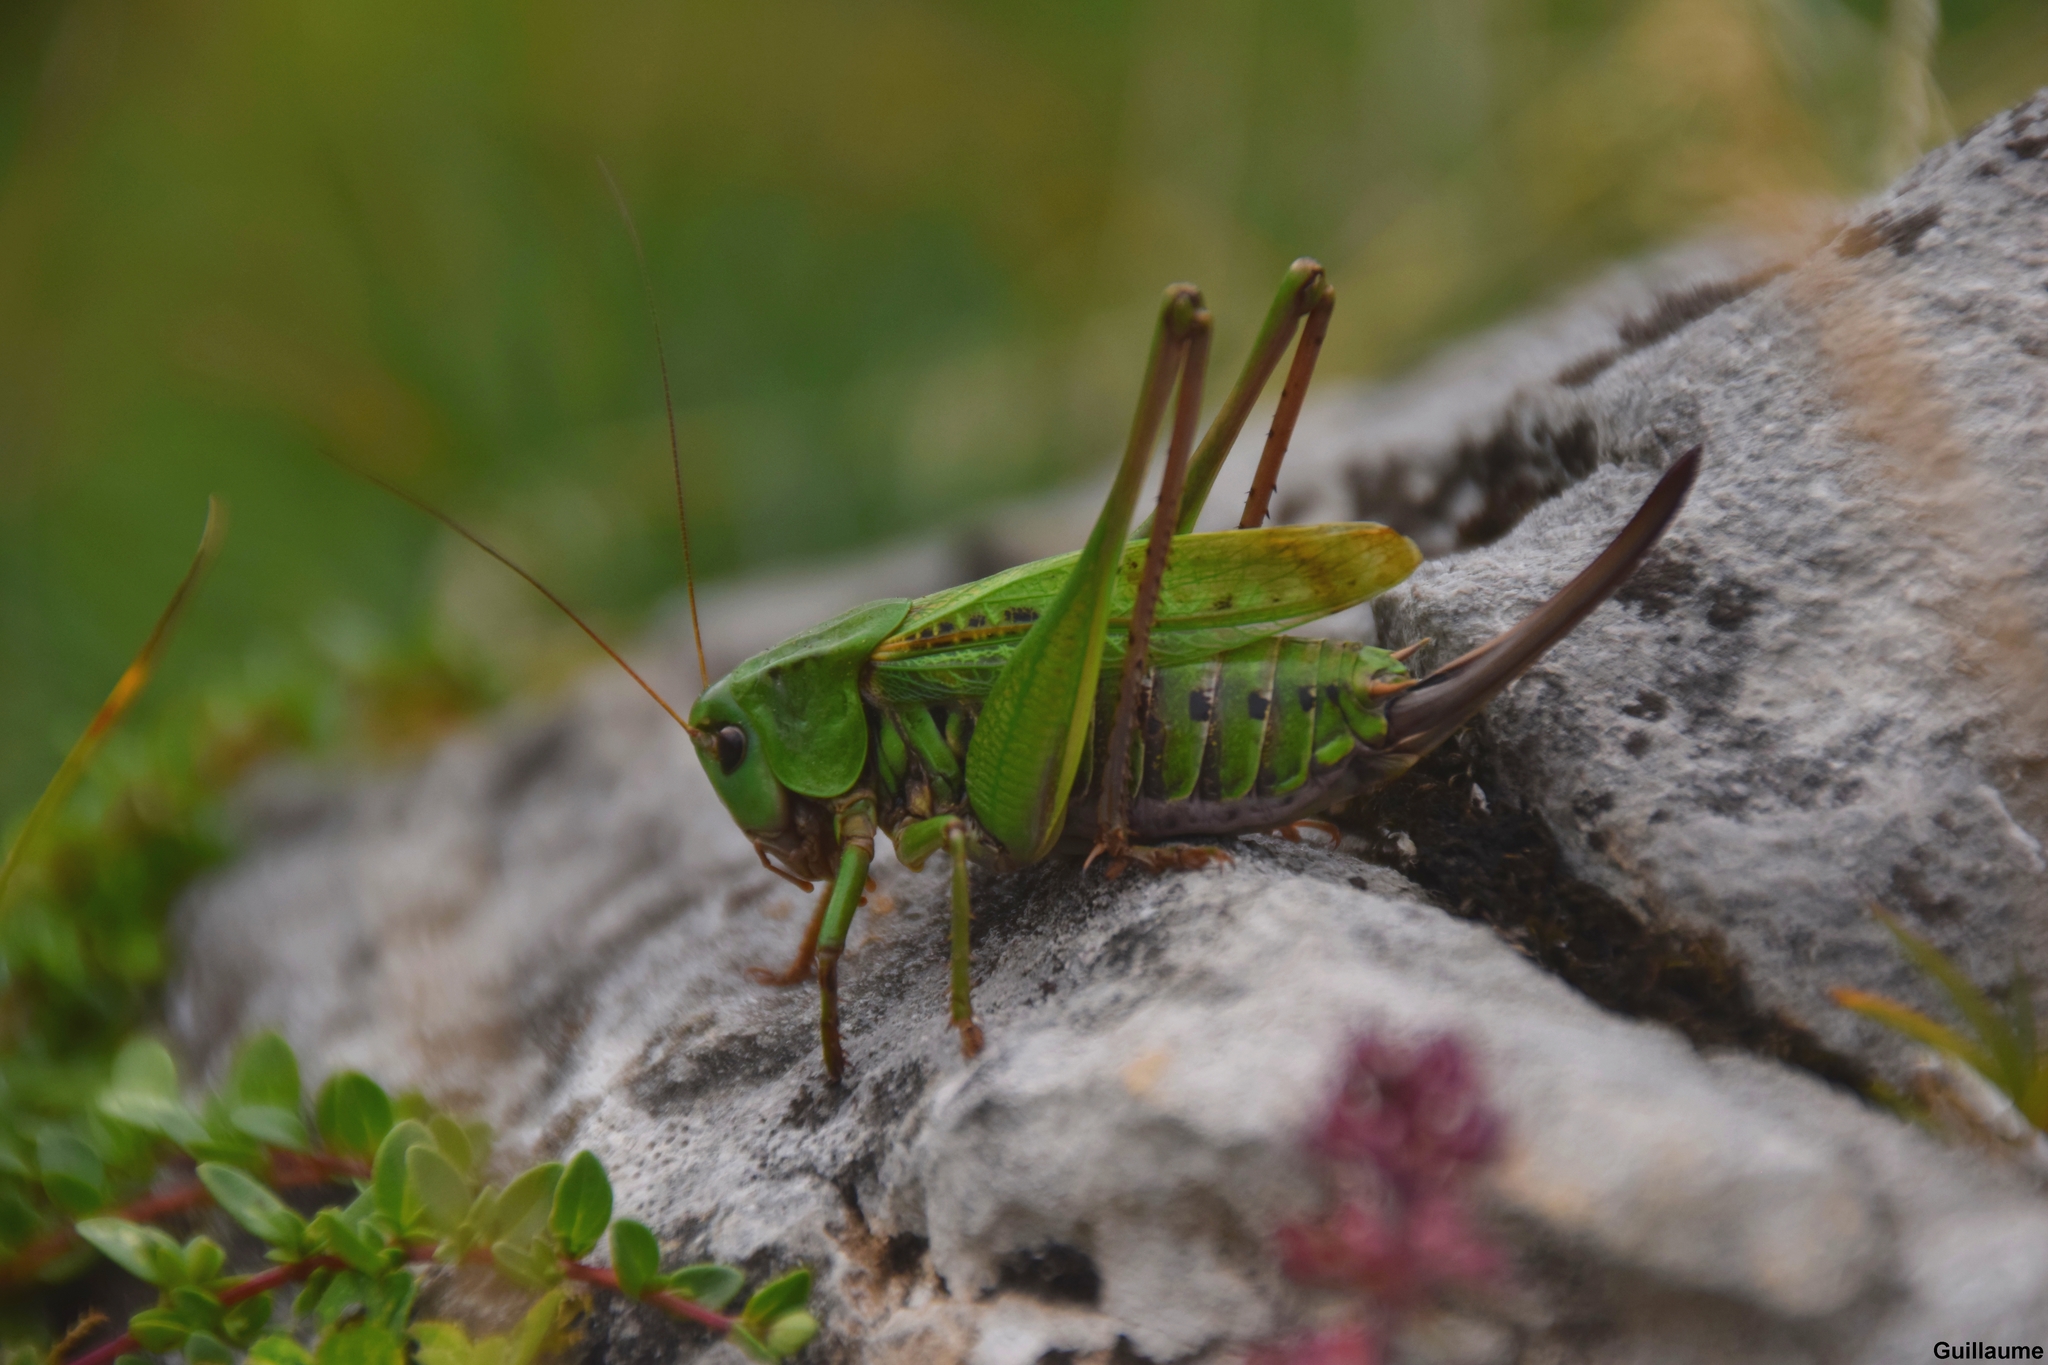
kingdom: Animalia
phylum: Arthropoda
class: Insecta
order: Orthoptera
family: Tettigoniidae
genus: Decticus
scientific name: Decticus verrucivorus
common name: Wart-biter
